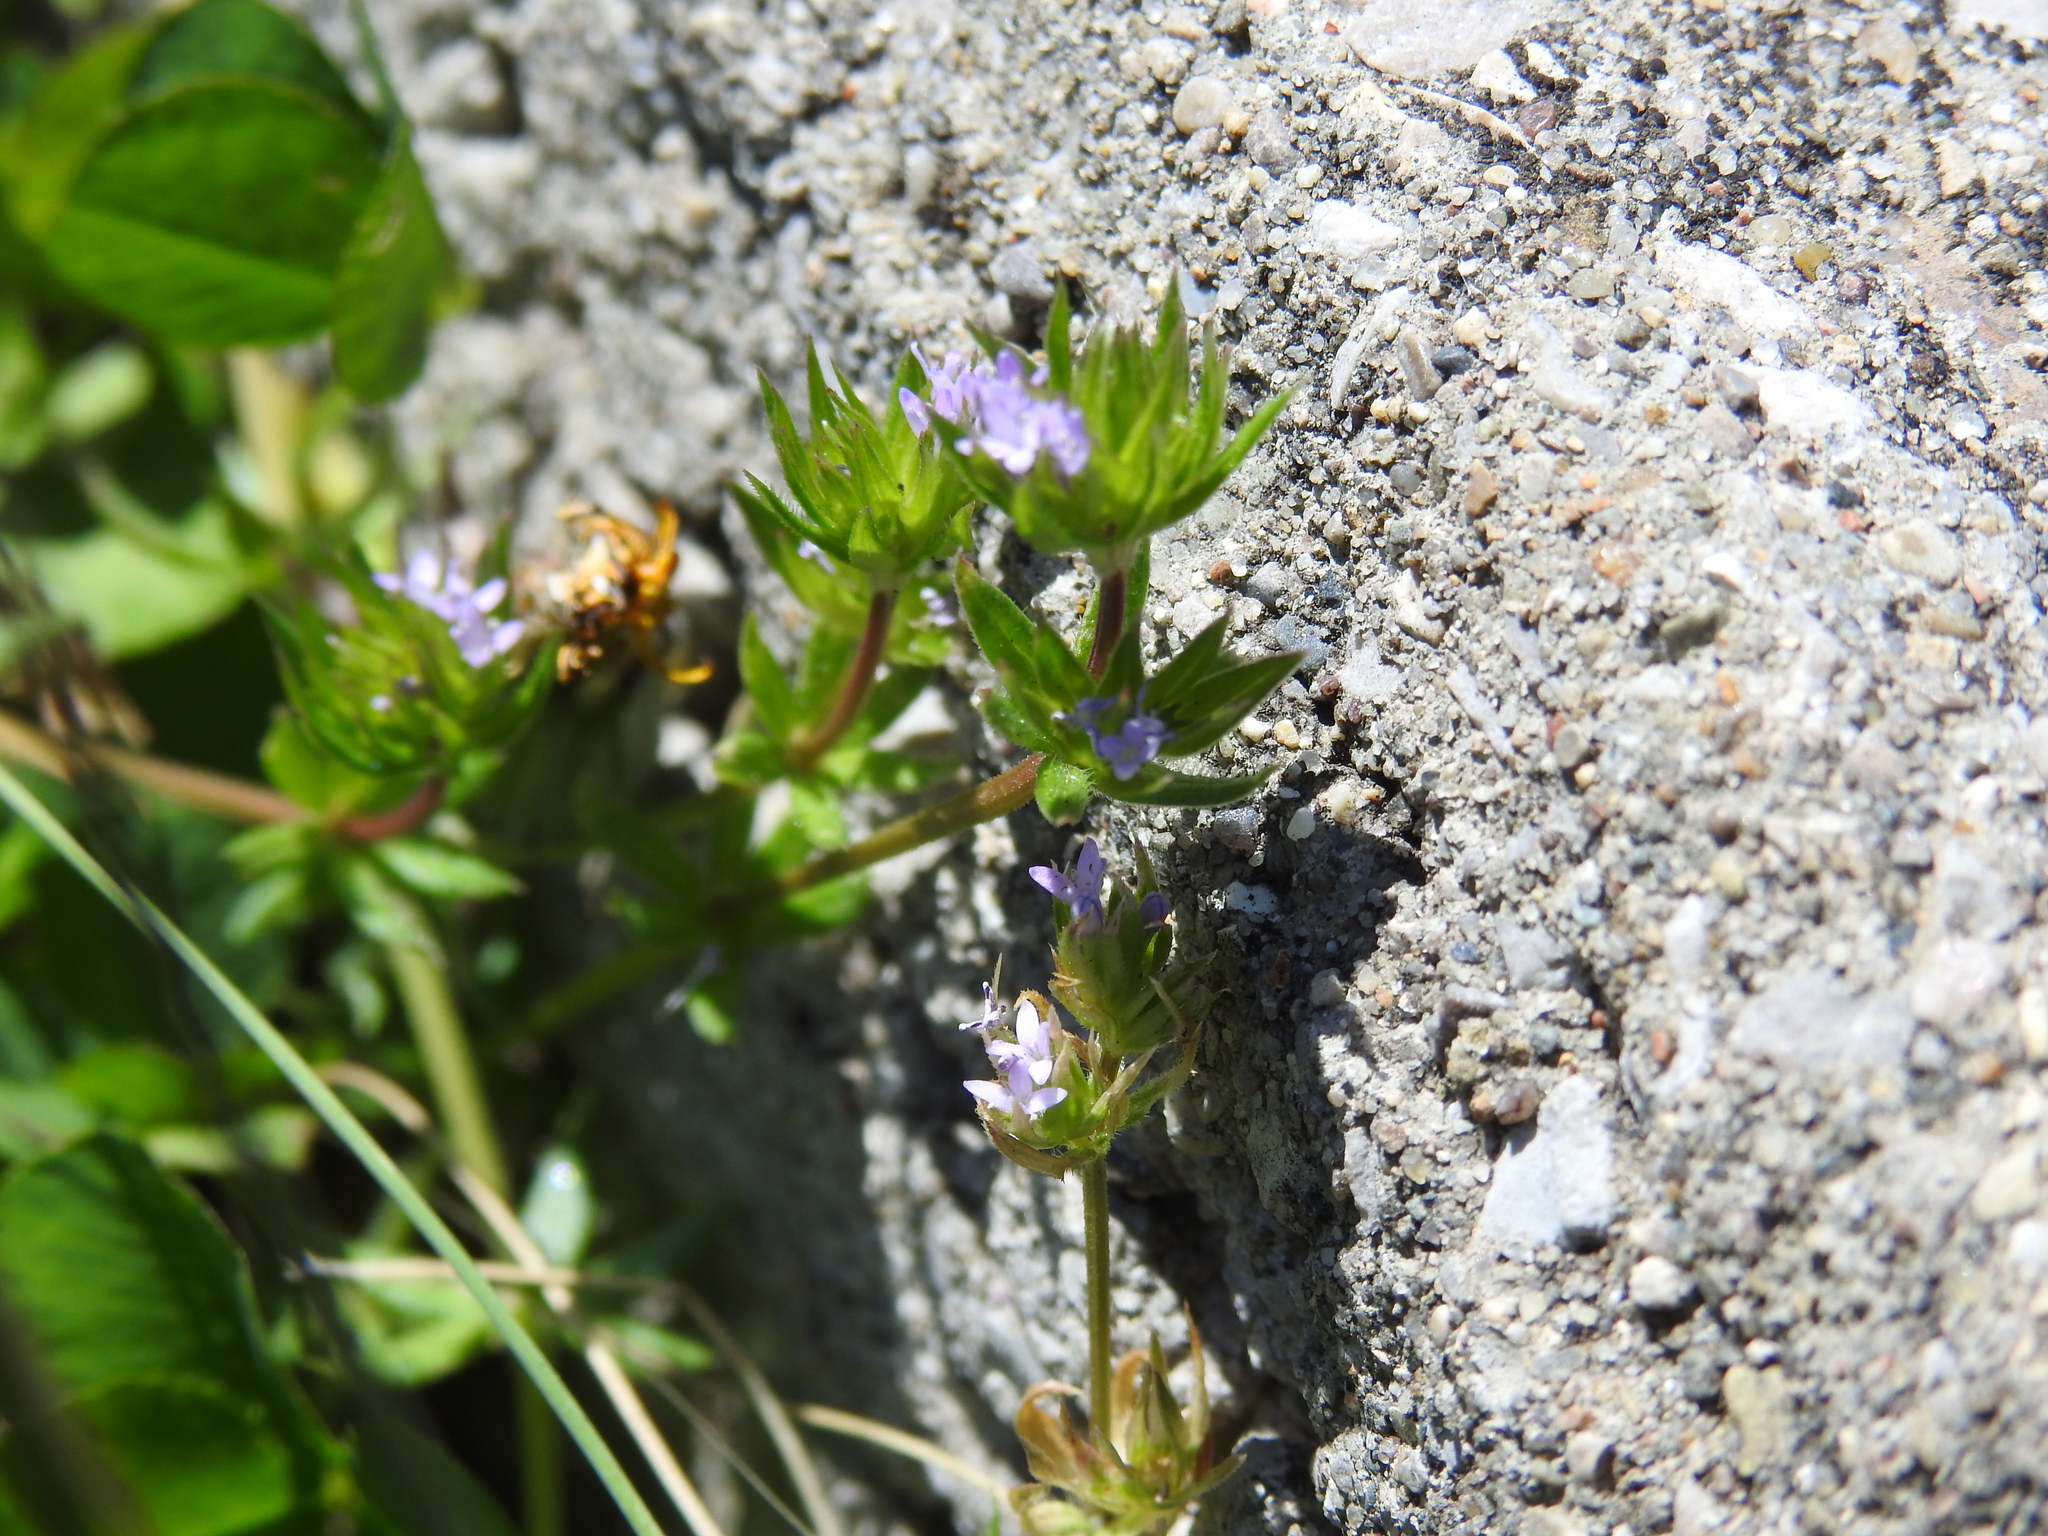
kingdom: Plantae
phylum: Tracheophyta
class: Magnoliopsida
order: Gentianales
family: Rubiaceae
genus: Sherardia
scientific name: Sherardia arvensis
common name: Field madder
